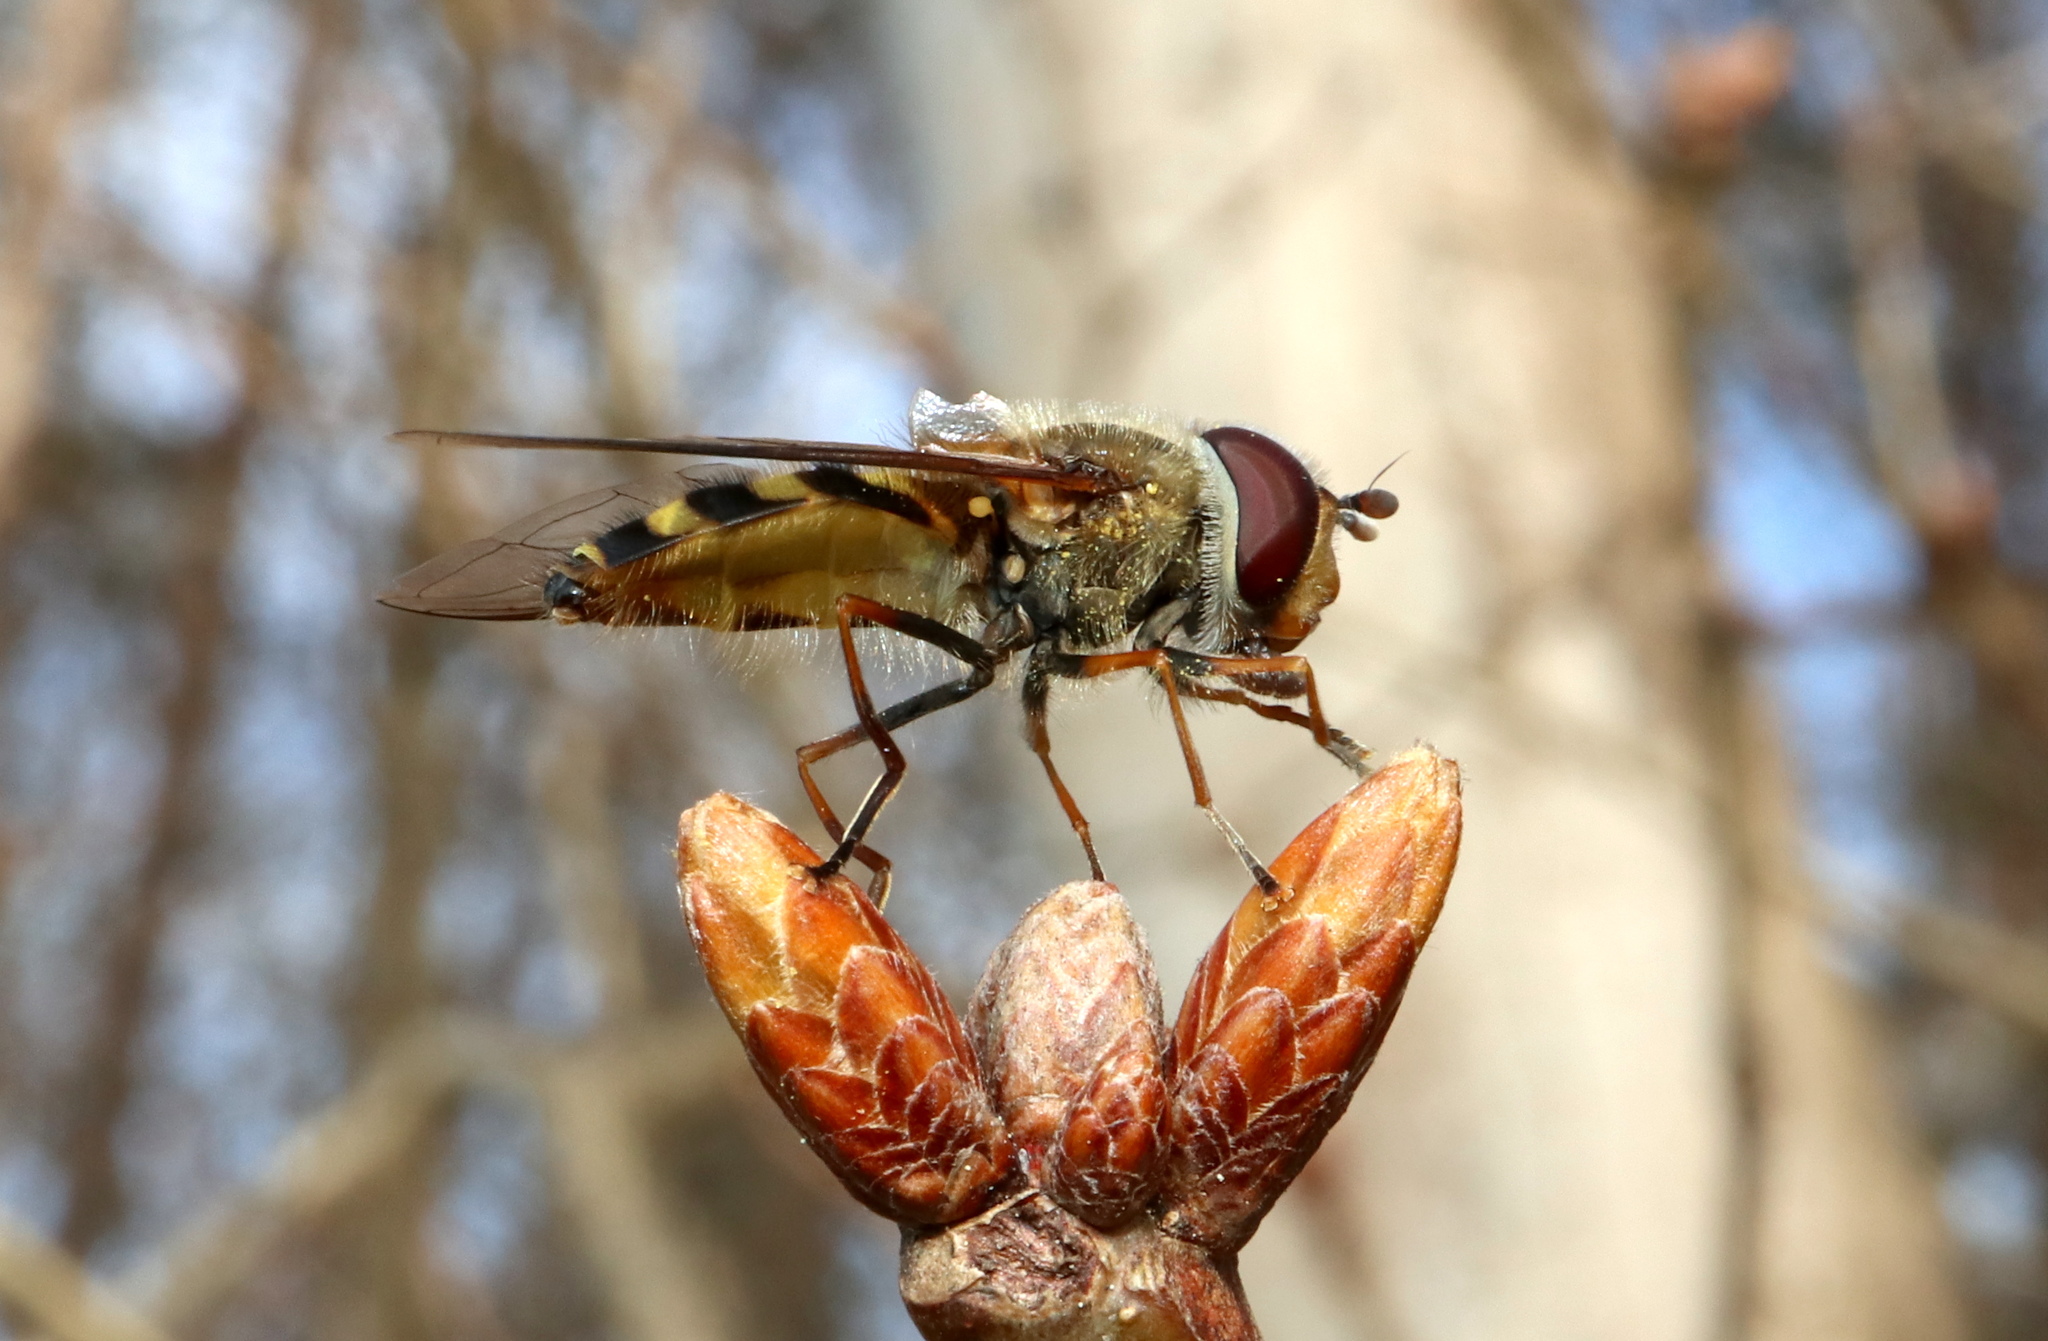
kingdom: Animalia
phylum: Arthropoda
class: Insecta
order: Diptera
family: Syrphidae
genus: Syrphus
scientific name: Syrphus torvus
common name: Hairy-eyed flower fly
